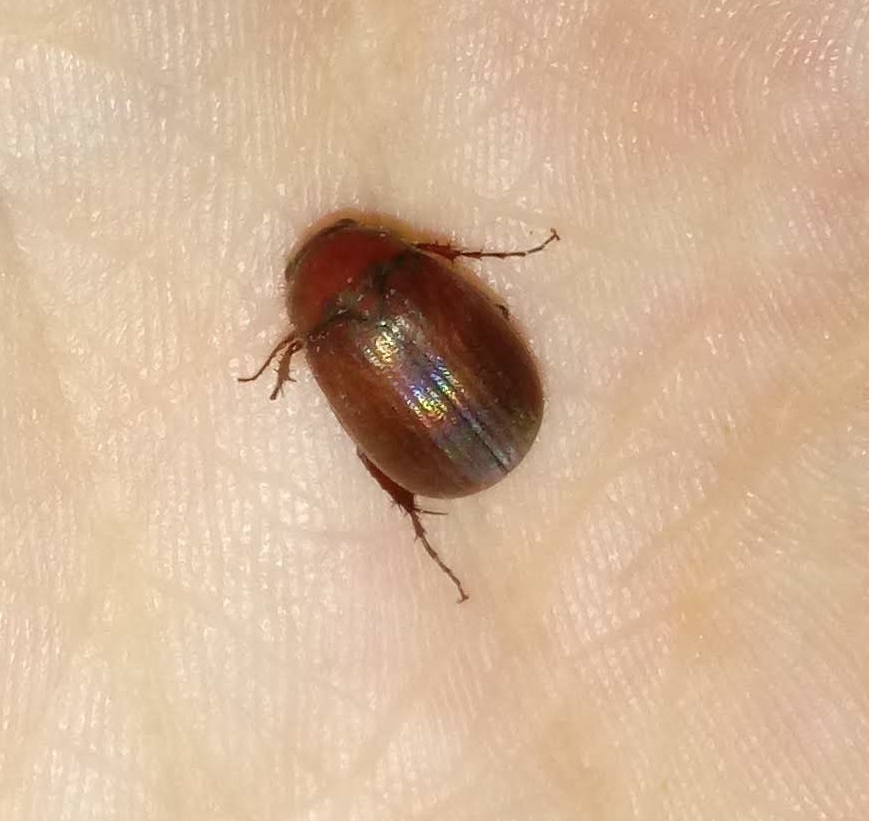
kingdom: Animalia
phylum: Arthropoda
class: Insecta
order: Coleoptera
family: Scarabaeidae
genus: Maladera
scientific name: Maladera formosae
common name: Asiatic garden beetle
